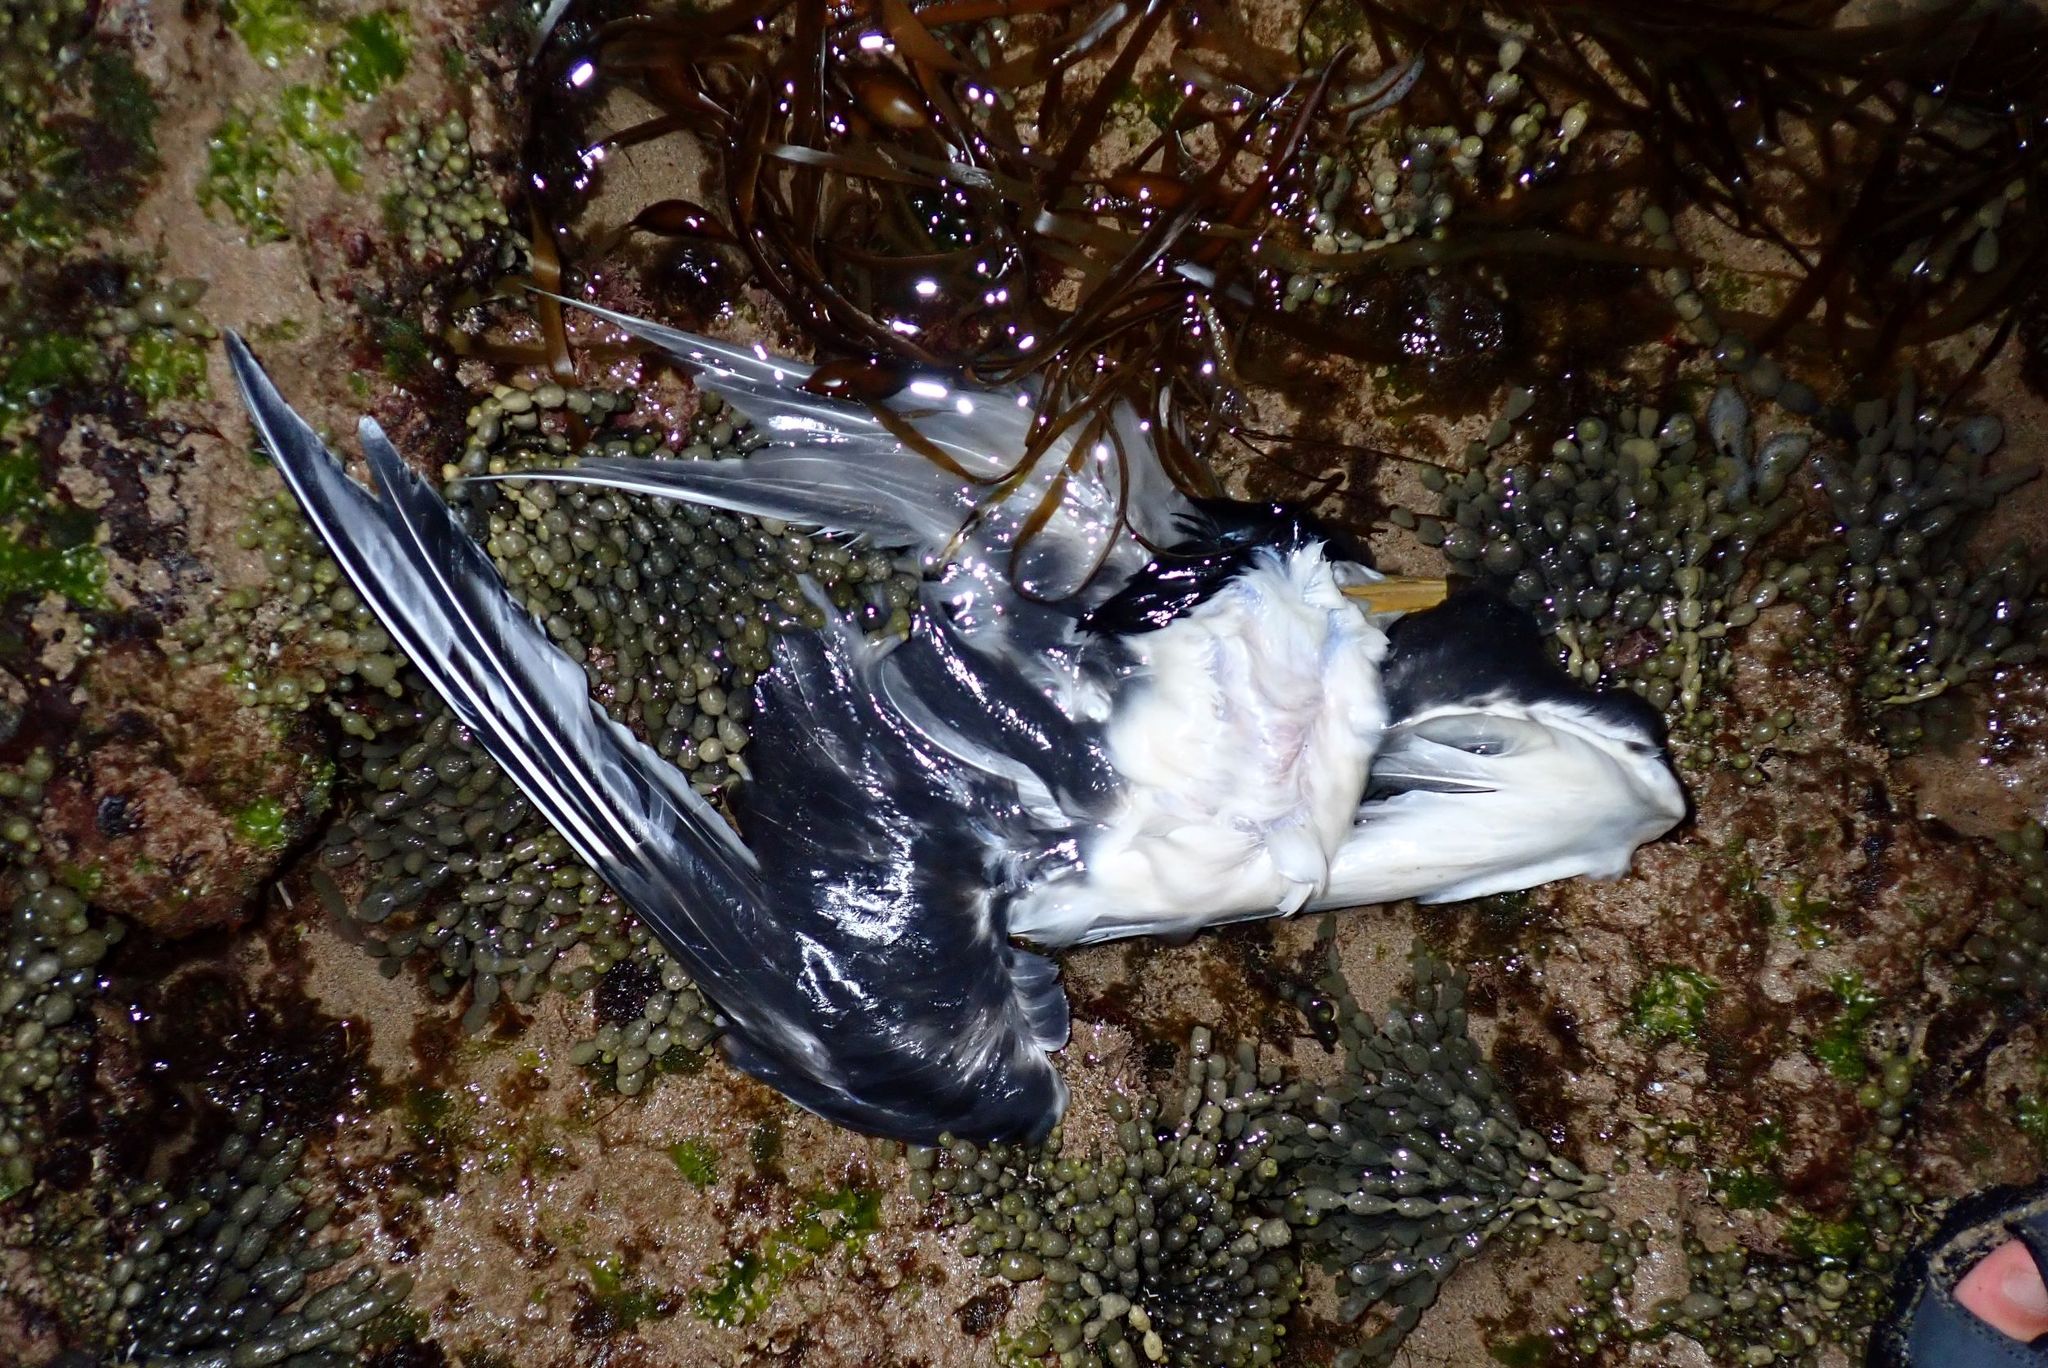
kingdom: Animalia
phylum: Chordata
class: Aves
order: Charadriiformes
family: Laridae
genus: Thalasseus
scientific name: Thalasseus bergii
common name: Greater crested tern
